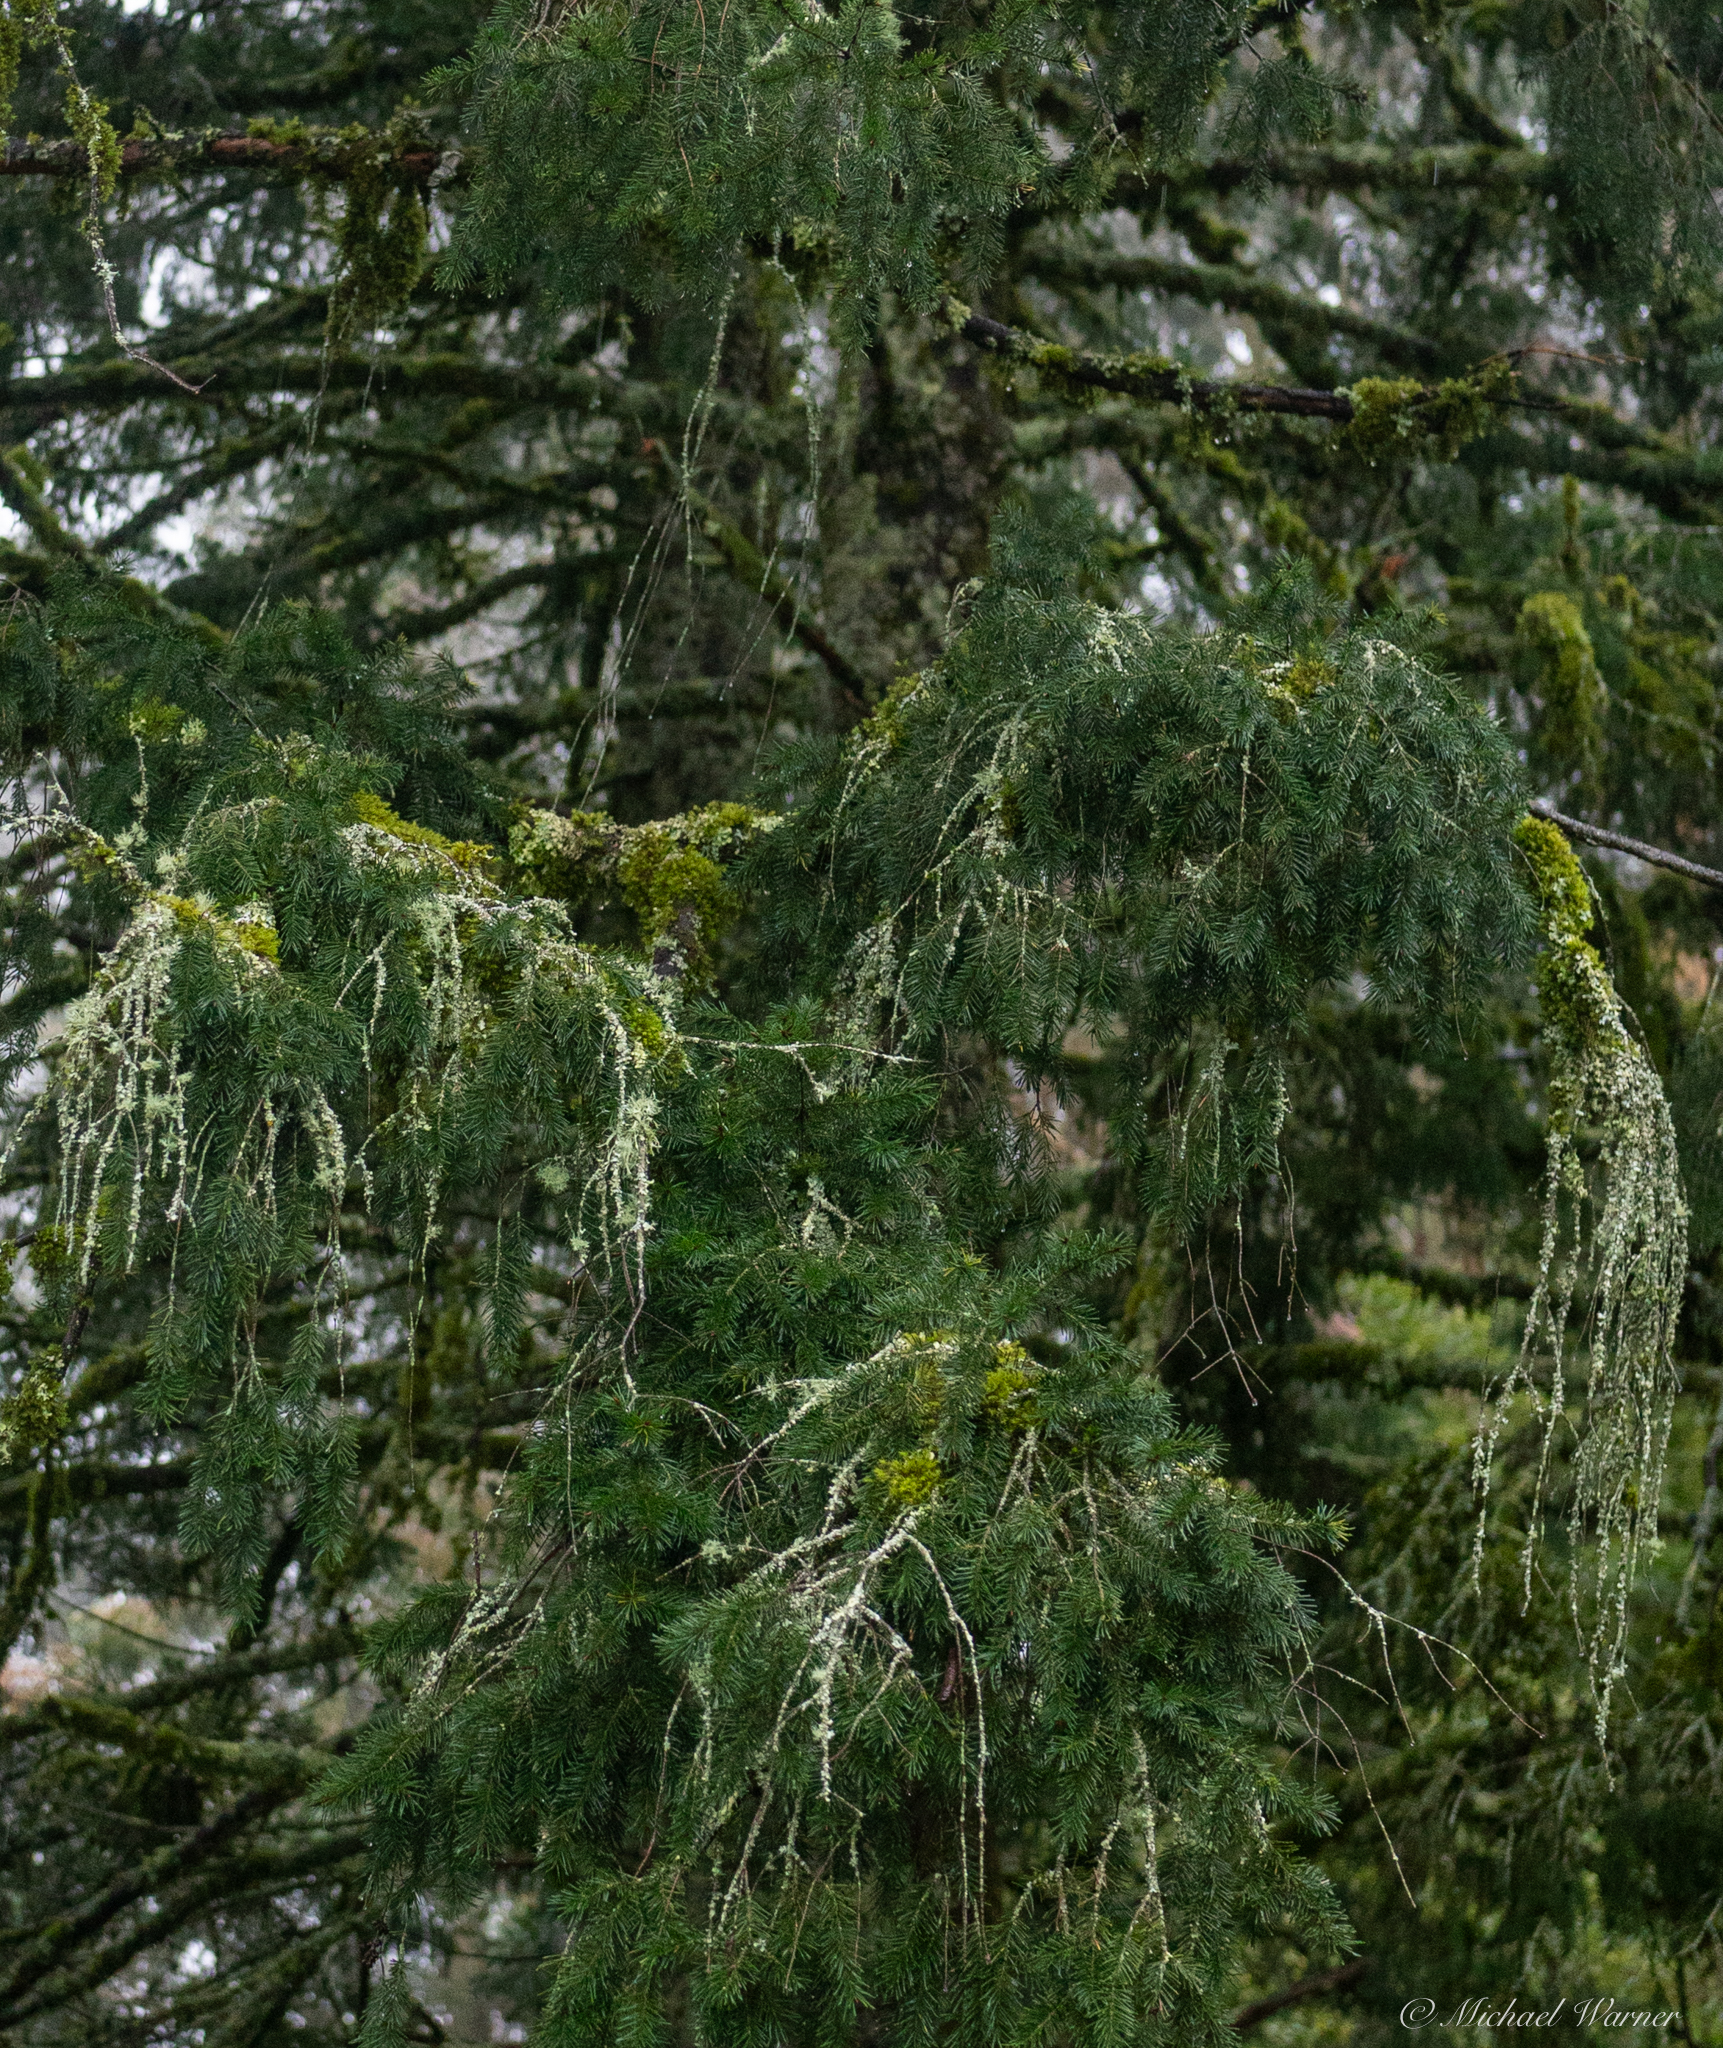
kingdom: Plantae
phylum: Tracheophyta
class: Pinopsida
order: Pinales
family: Pinaceae
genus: Pseudotsuga
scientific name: Pseudotsuga menziesii
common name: Douglas fir
